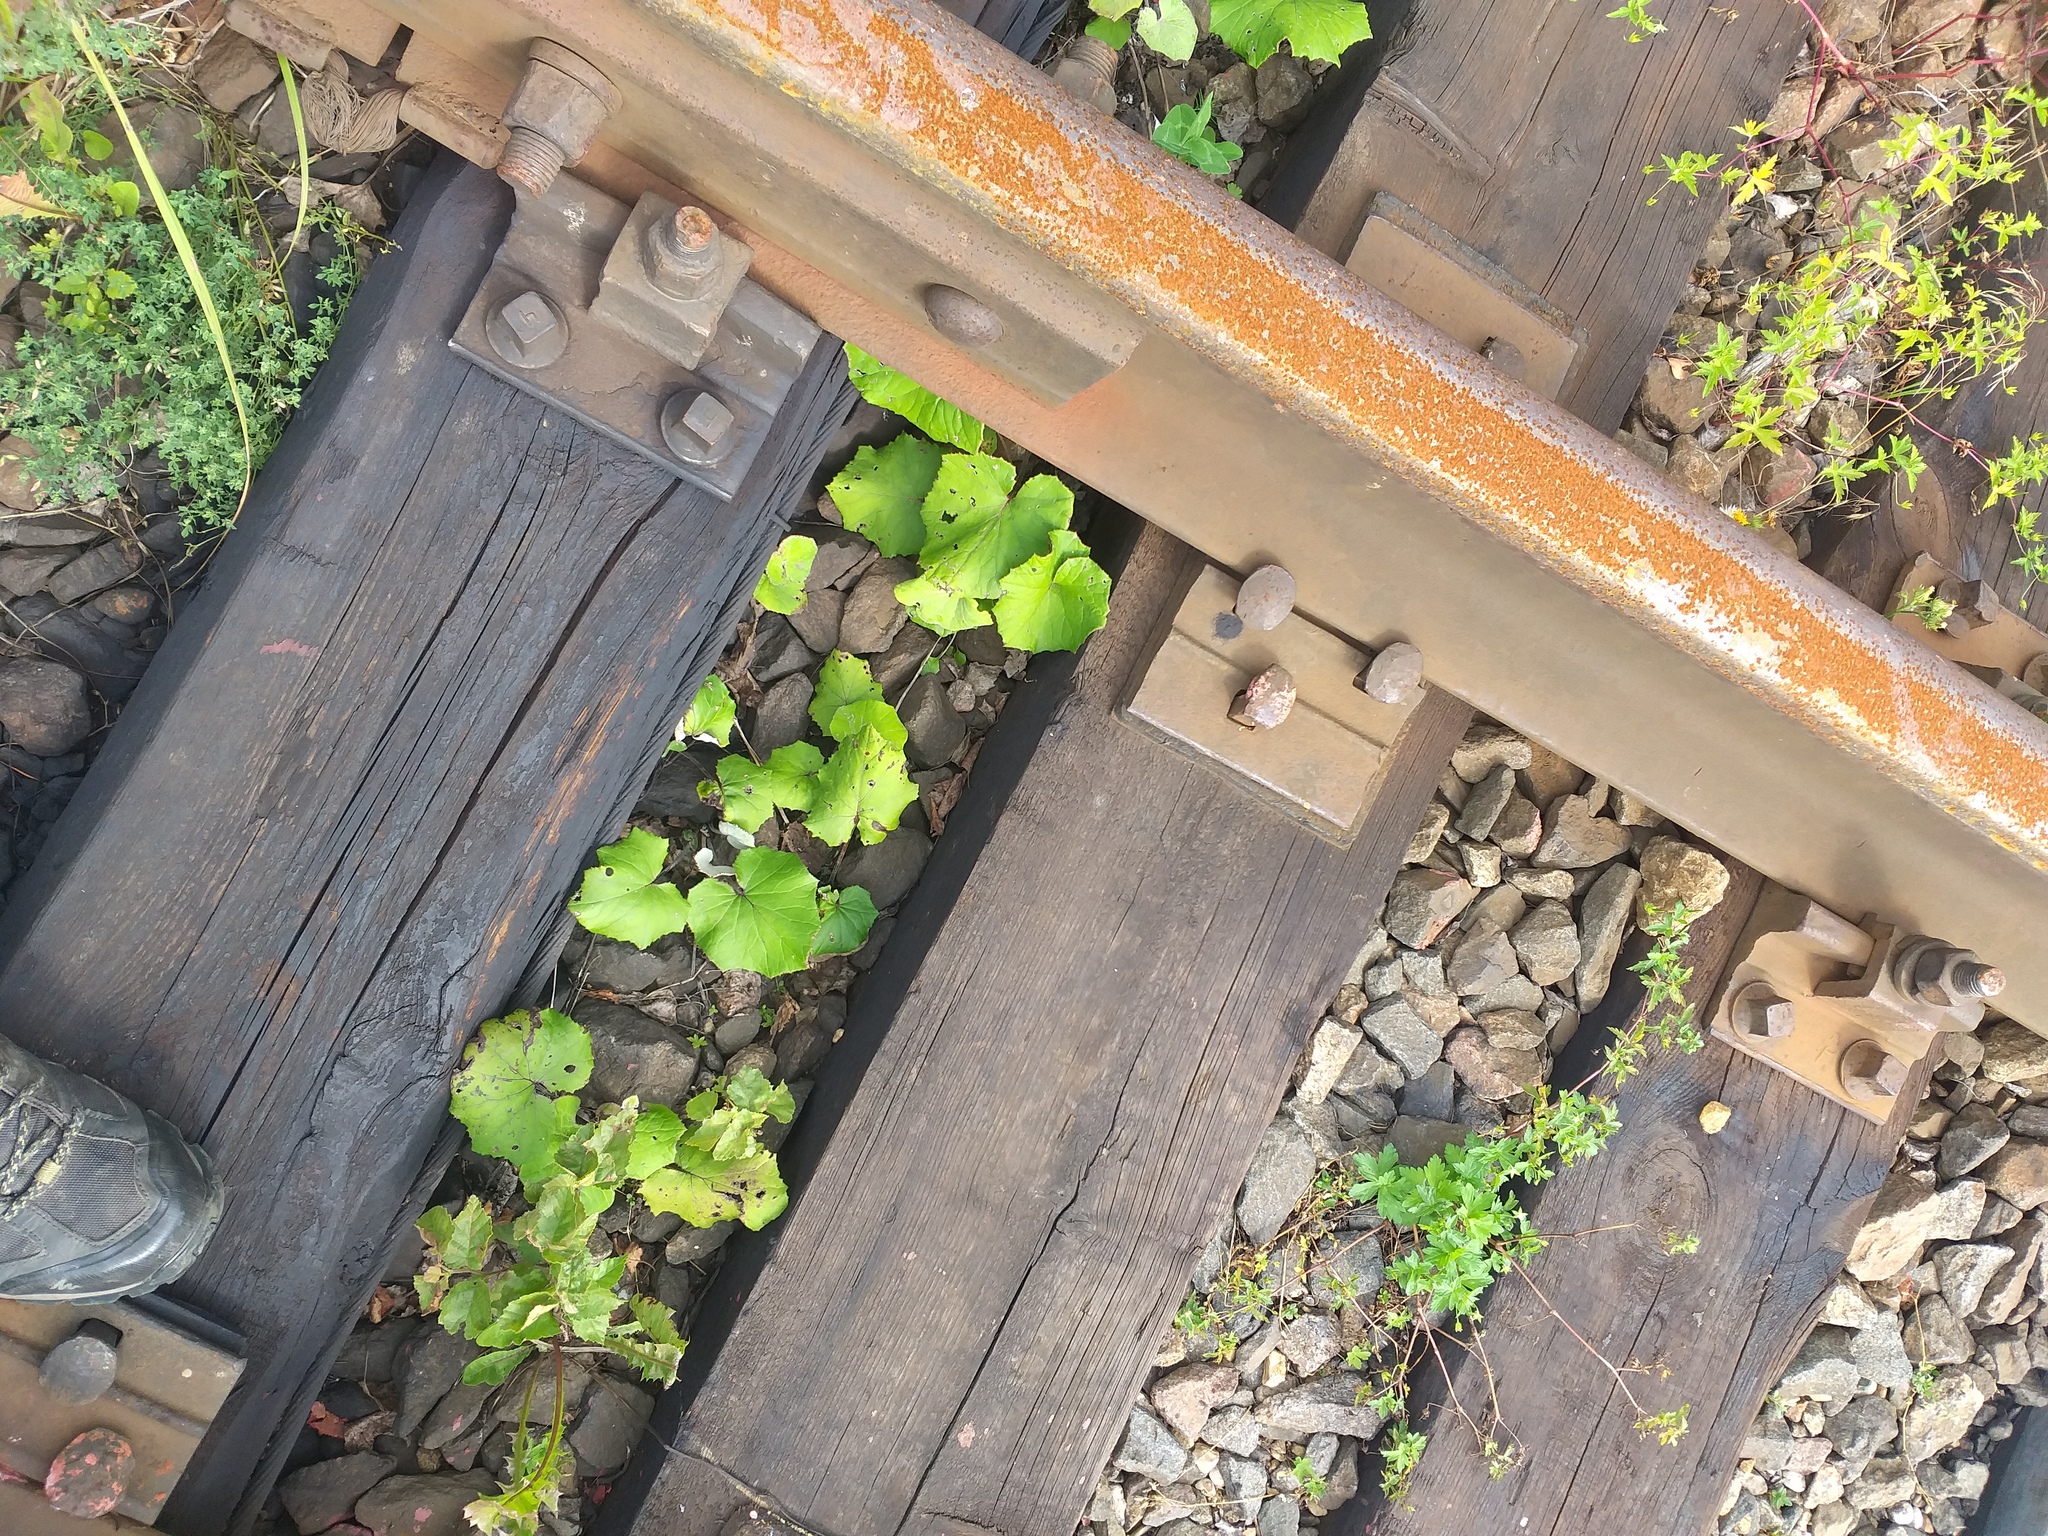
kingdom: Plantae
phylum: Tracheophyta
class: Magnoliopsida
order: Asterales
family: Asteraceae
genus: Tussilago
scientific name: Tussilago farfara
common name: Coltsfoot
